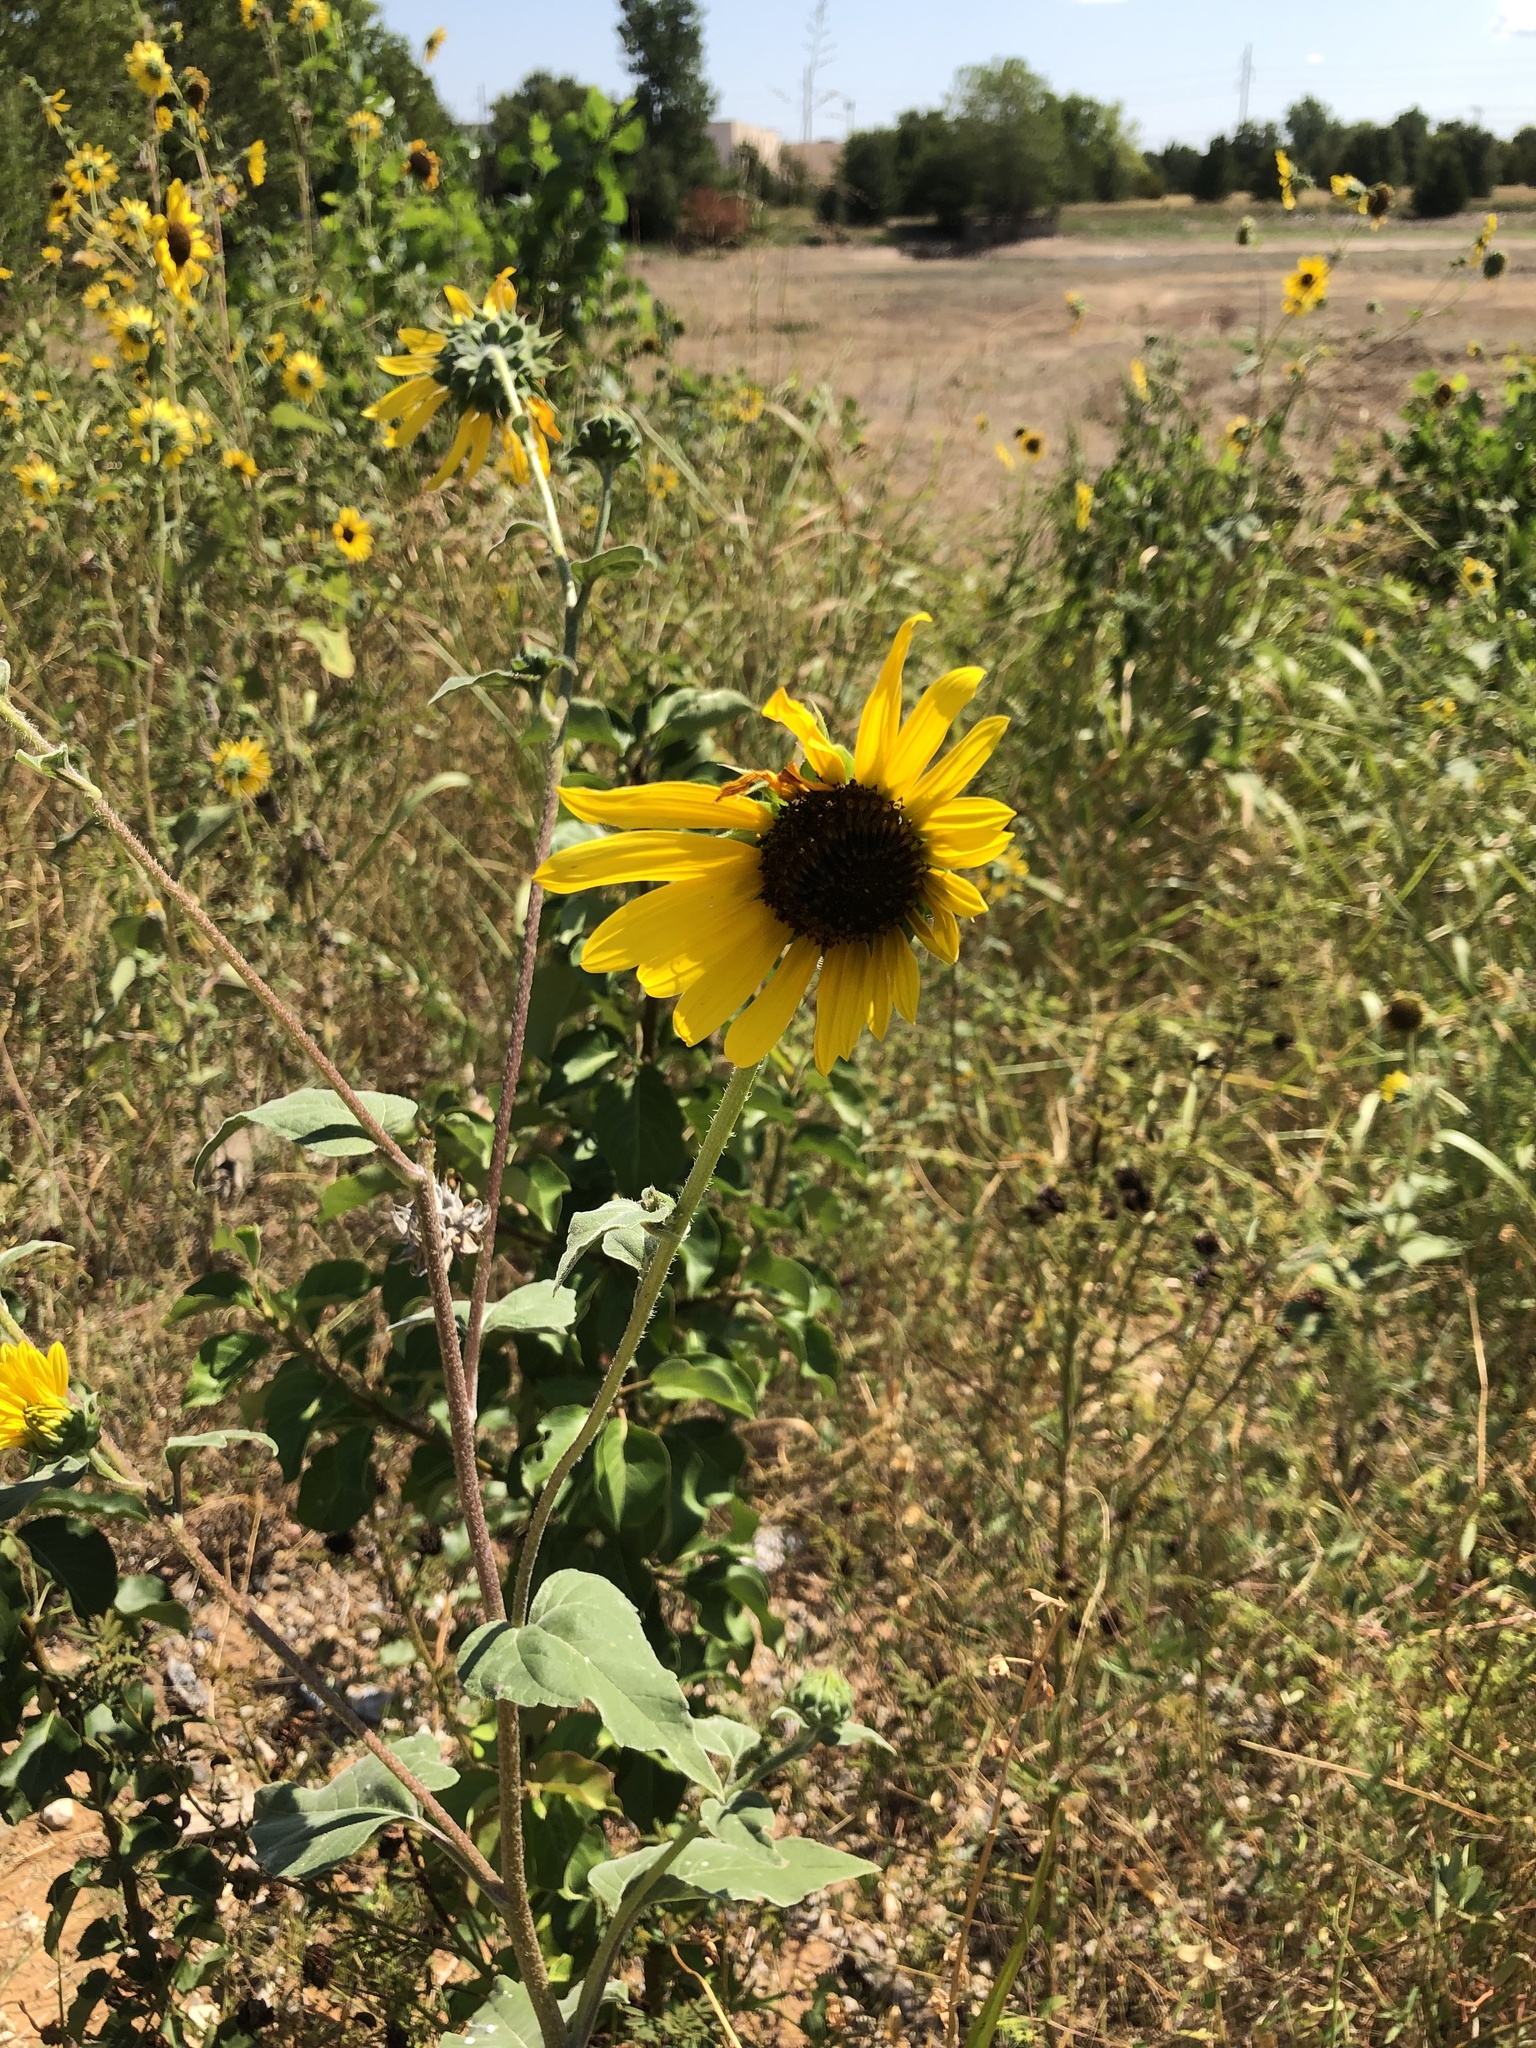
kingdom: Plantae
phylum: Tracheophyta
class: Magnoliopsida
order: Asterales
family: Asteraceae
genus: Helianthus
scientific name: Helianthus annuus
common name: Sunflower
